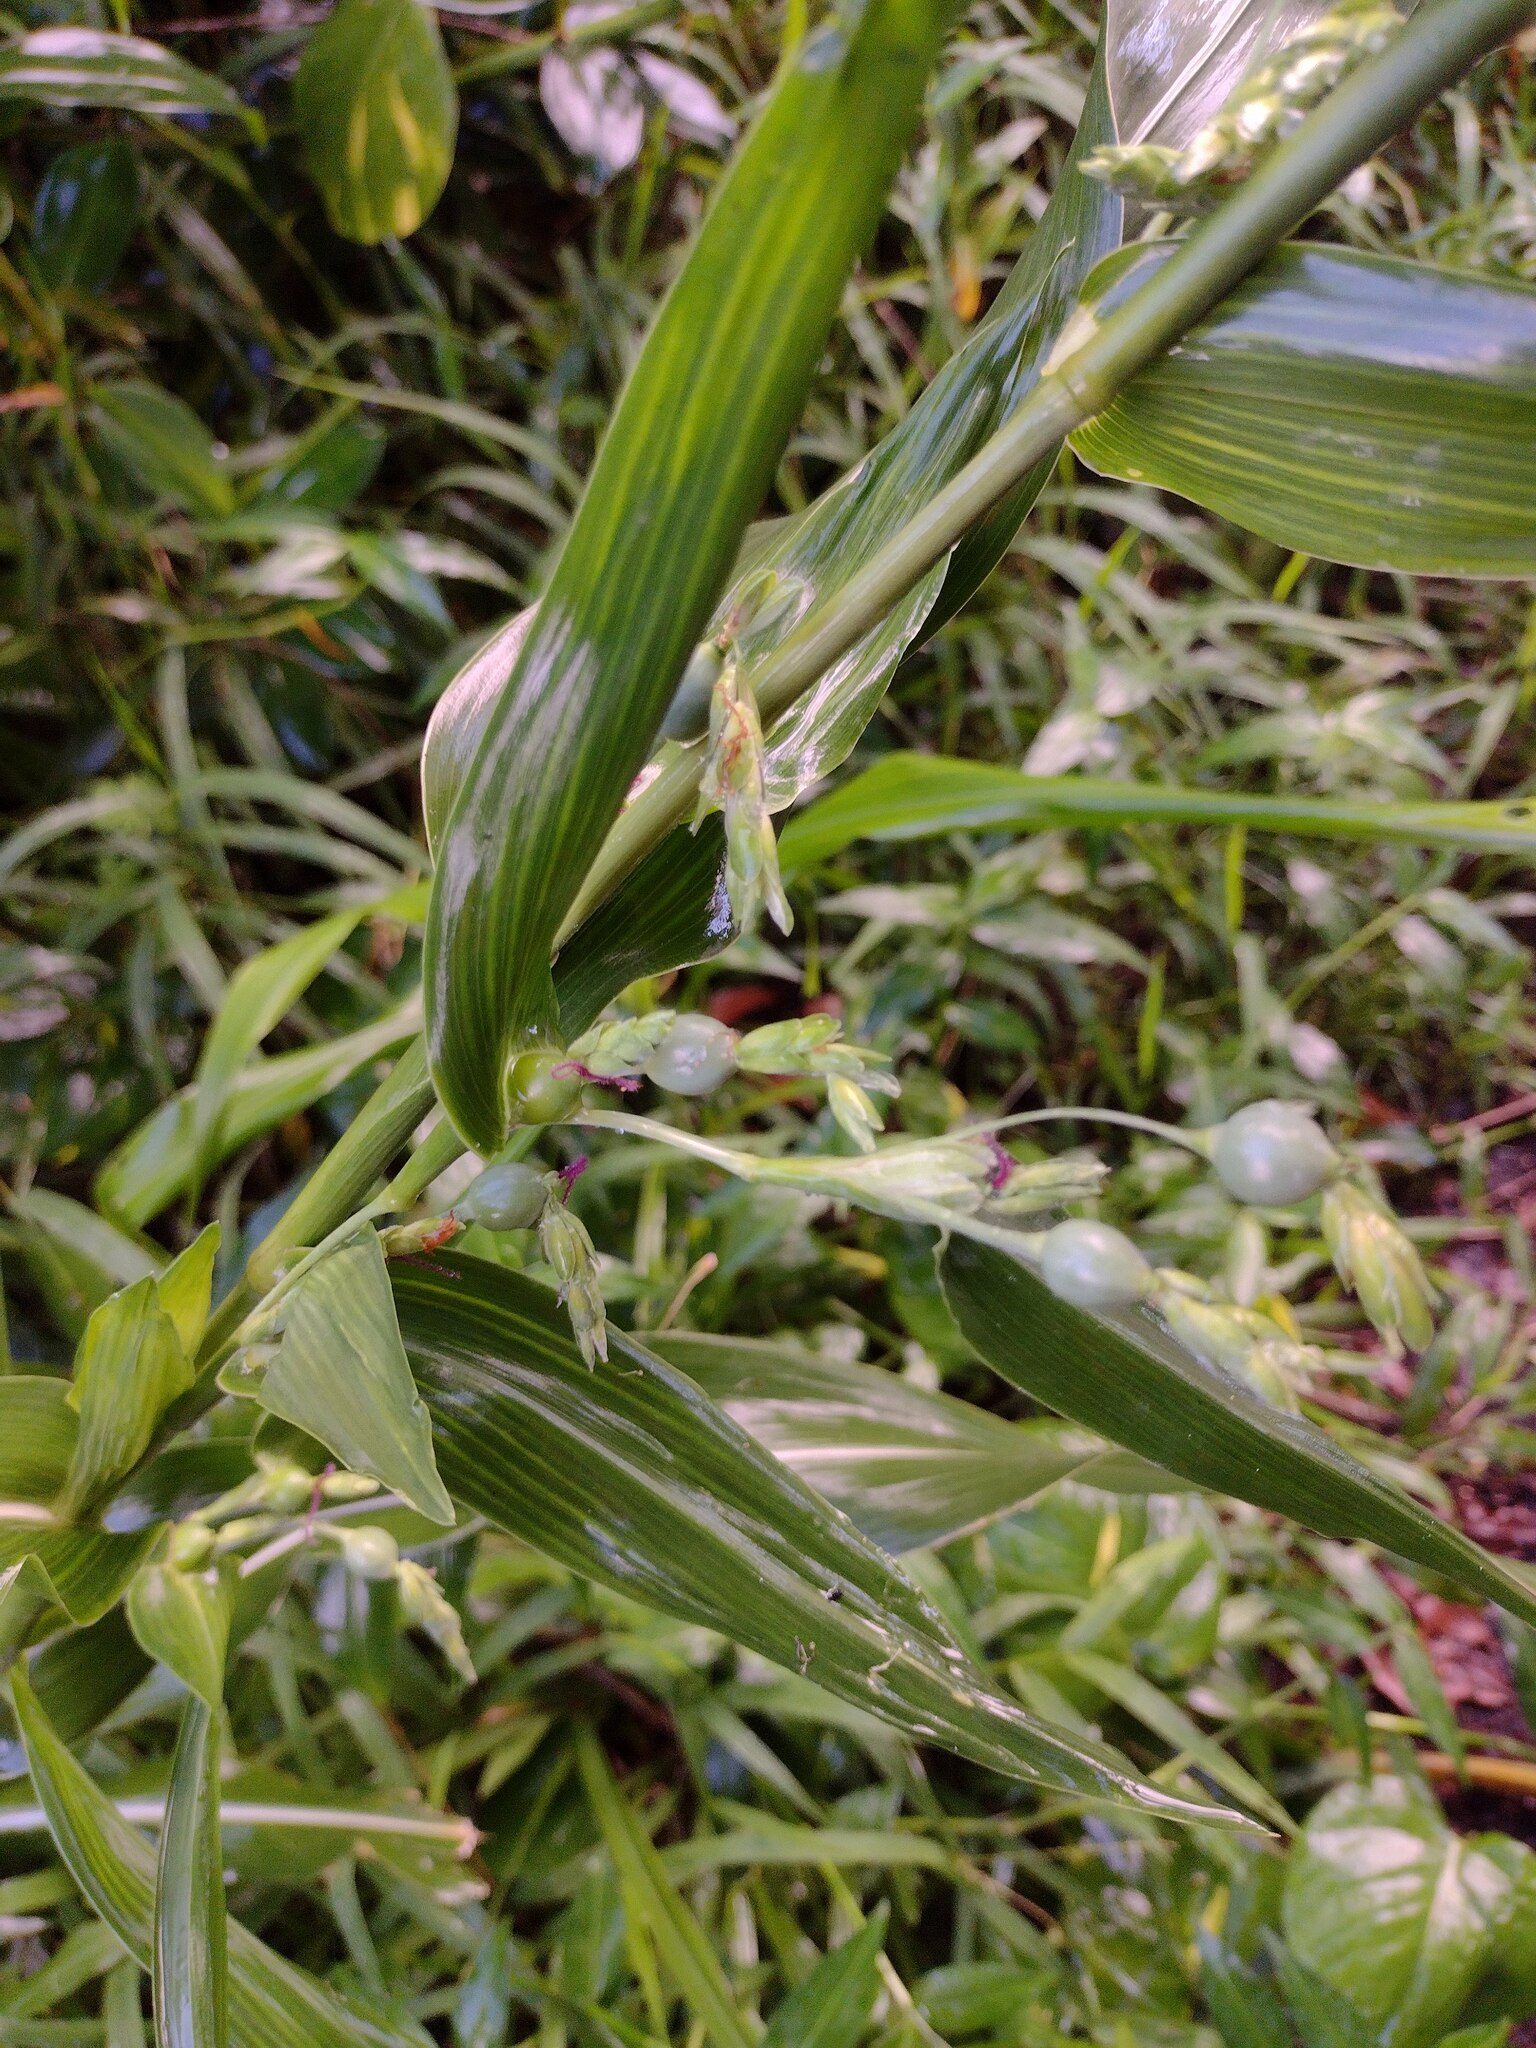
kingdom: Plantae
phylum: Tracheophyta
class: Liliopsida
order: Poales
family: Poaceae
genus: Coix
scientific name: Coix lacryma-jobi
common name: Job's tears
